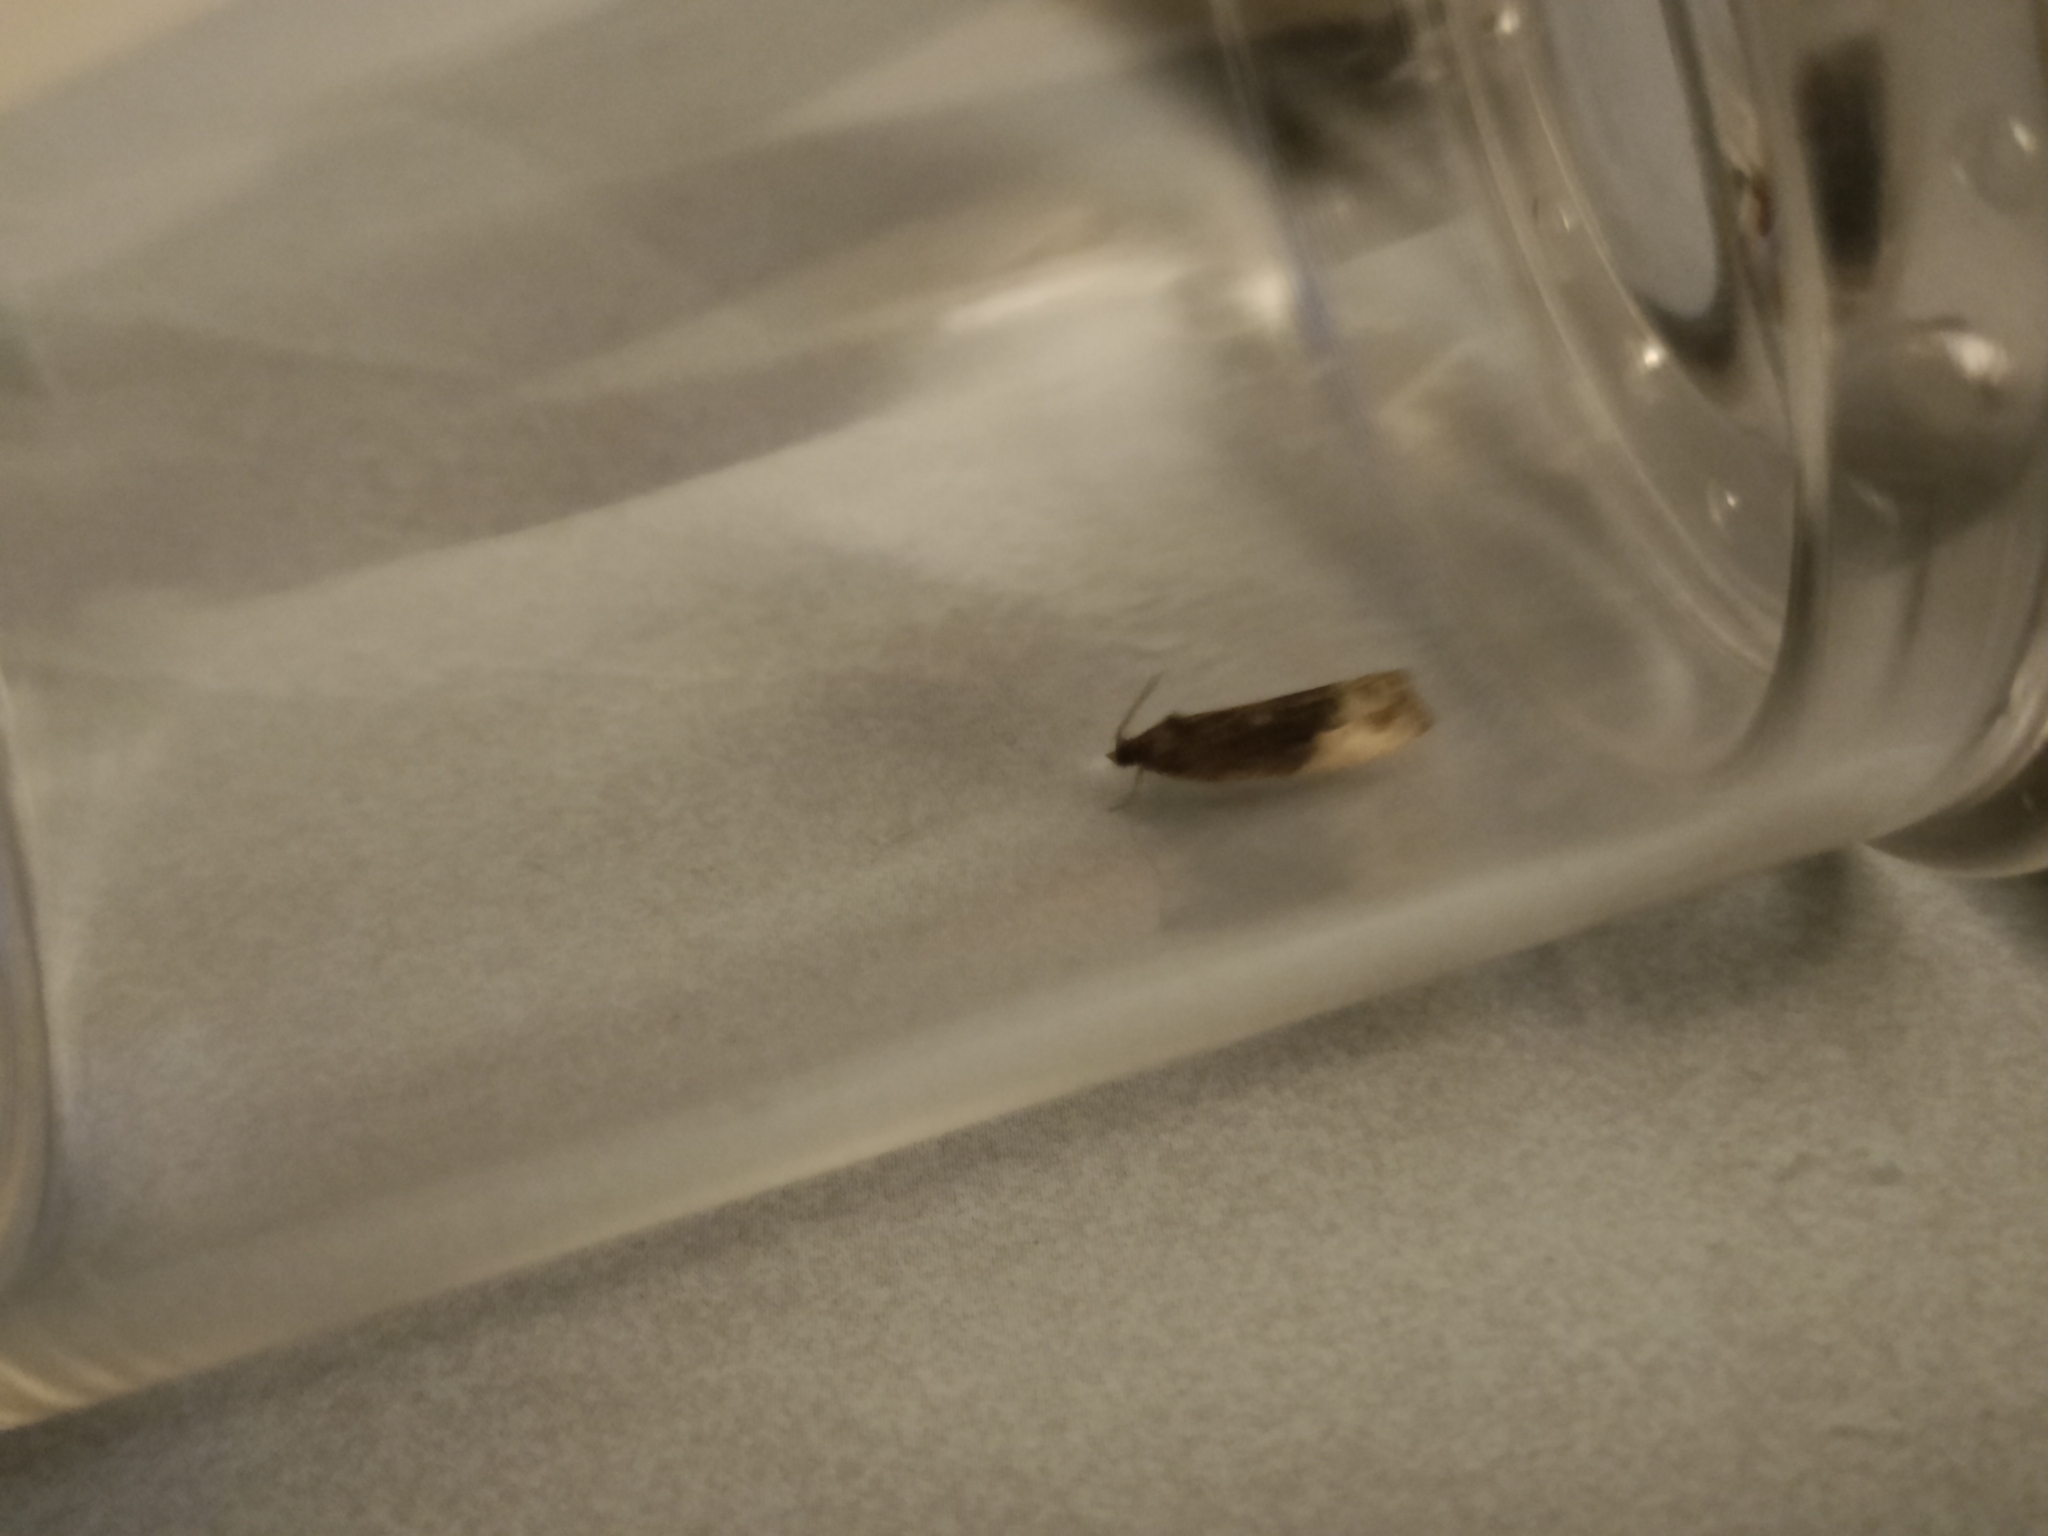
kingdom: Animalia
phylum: Arthropoda
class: Insecta
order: Lepidoptera
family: Tortricidae
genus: Hedya
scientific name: Hedya nubiferana
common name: Marbled orchard tortrix
